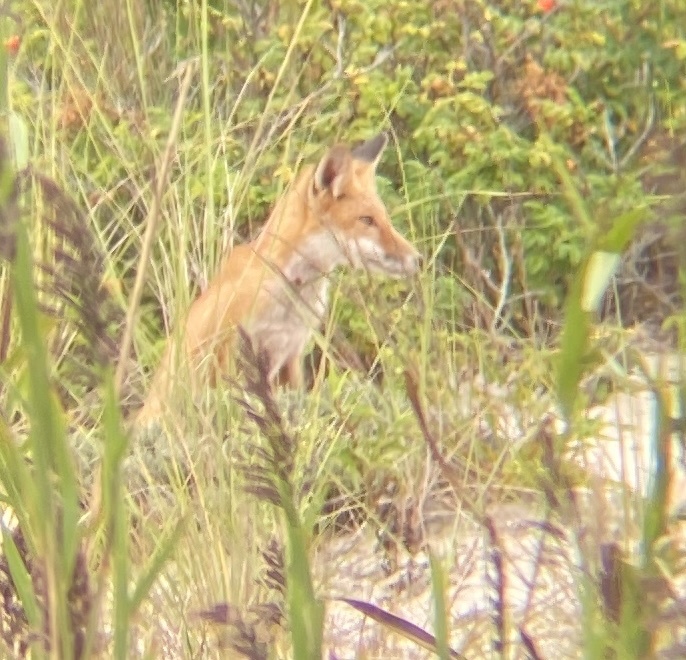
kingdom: Animalia
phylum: Chordata
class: Mammalia
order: Carnivora
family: Canidae
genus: Vulpes
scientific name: Vulpes vulpes
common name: Red fox
